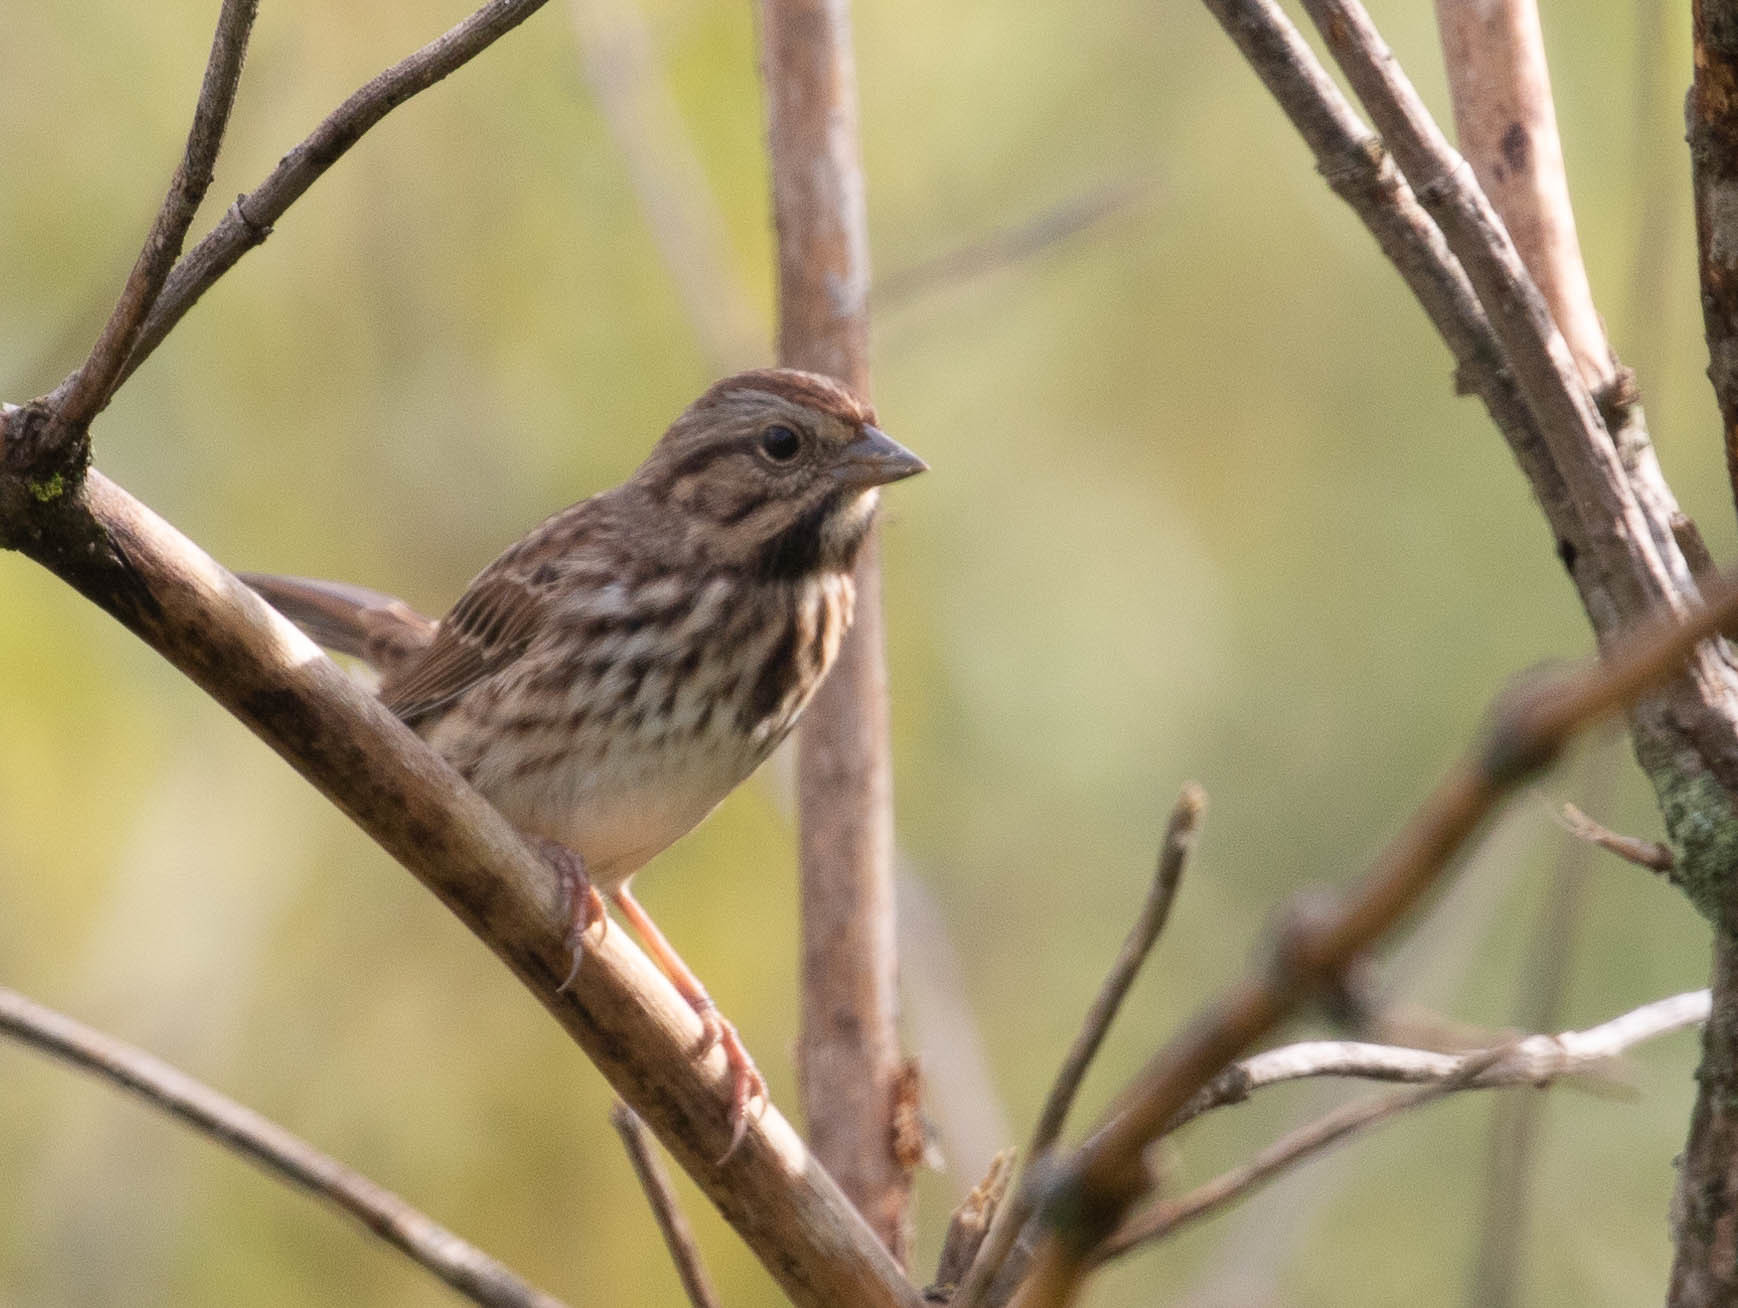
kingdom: Animalia
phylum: Chordata
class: Aves
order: Passeriformes
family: Passerellidae
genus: Melospiza
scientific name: Melospiza melodia
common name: Song sparrow
